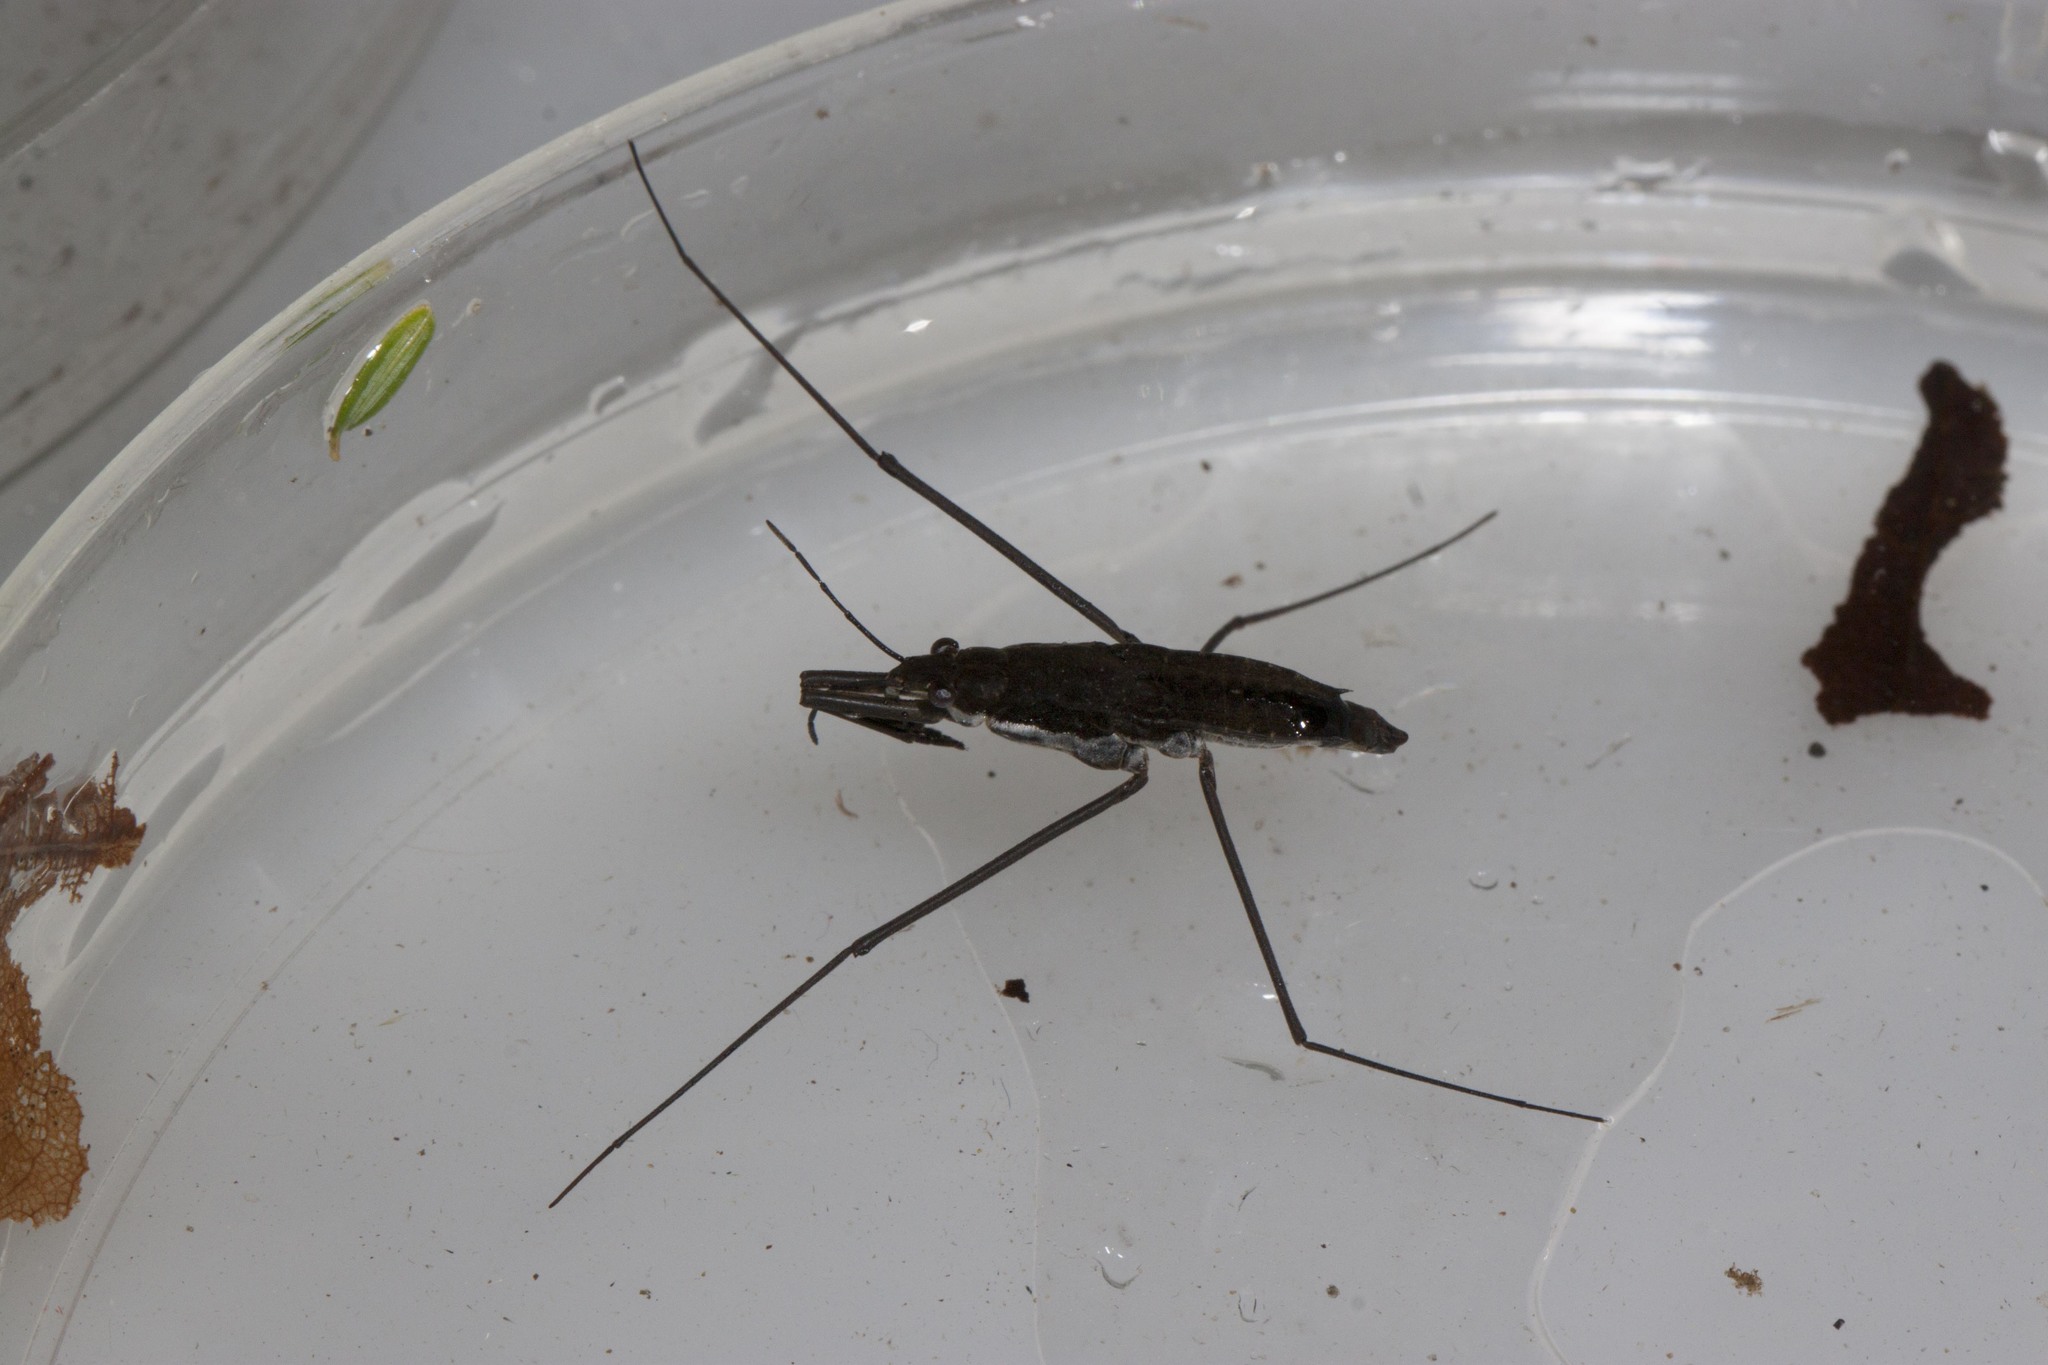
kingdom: Animalia
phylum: Arthropoda
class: Insecta
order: Hemiptera
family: Gerridae
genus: Aquarius
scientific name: Aquarius remigis
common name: Common water strider
